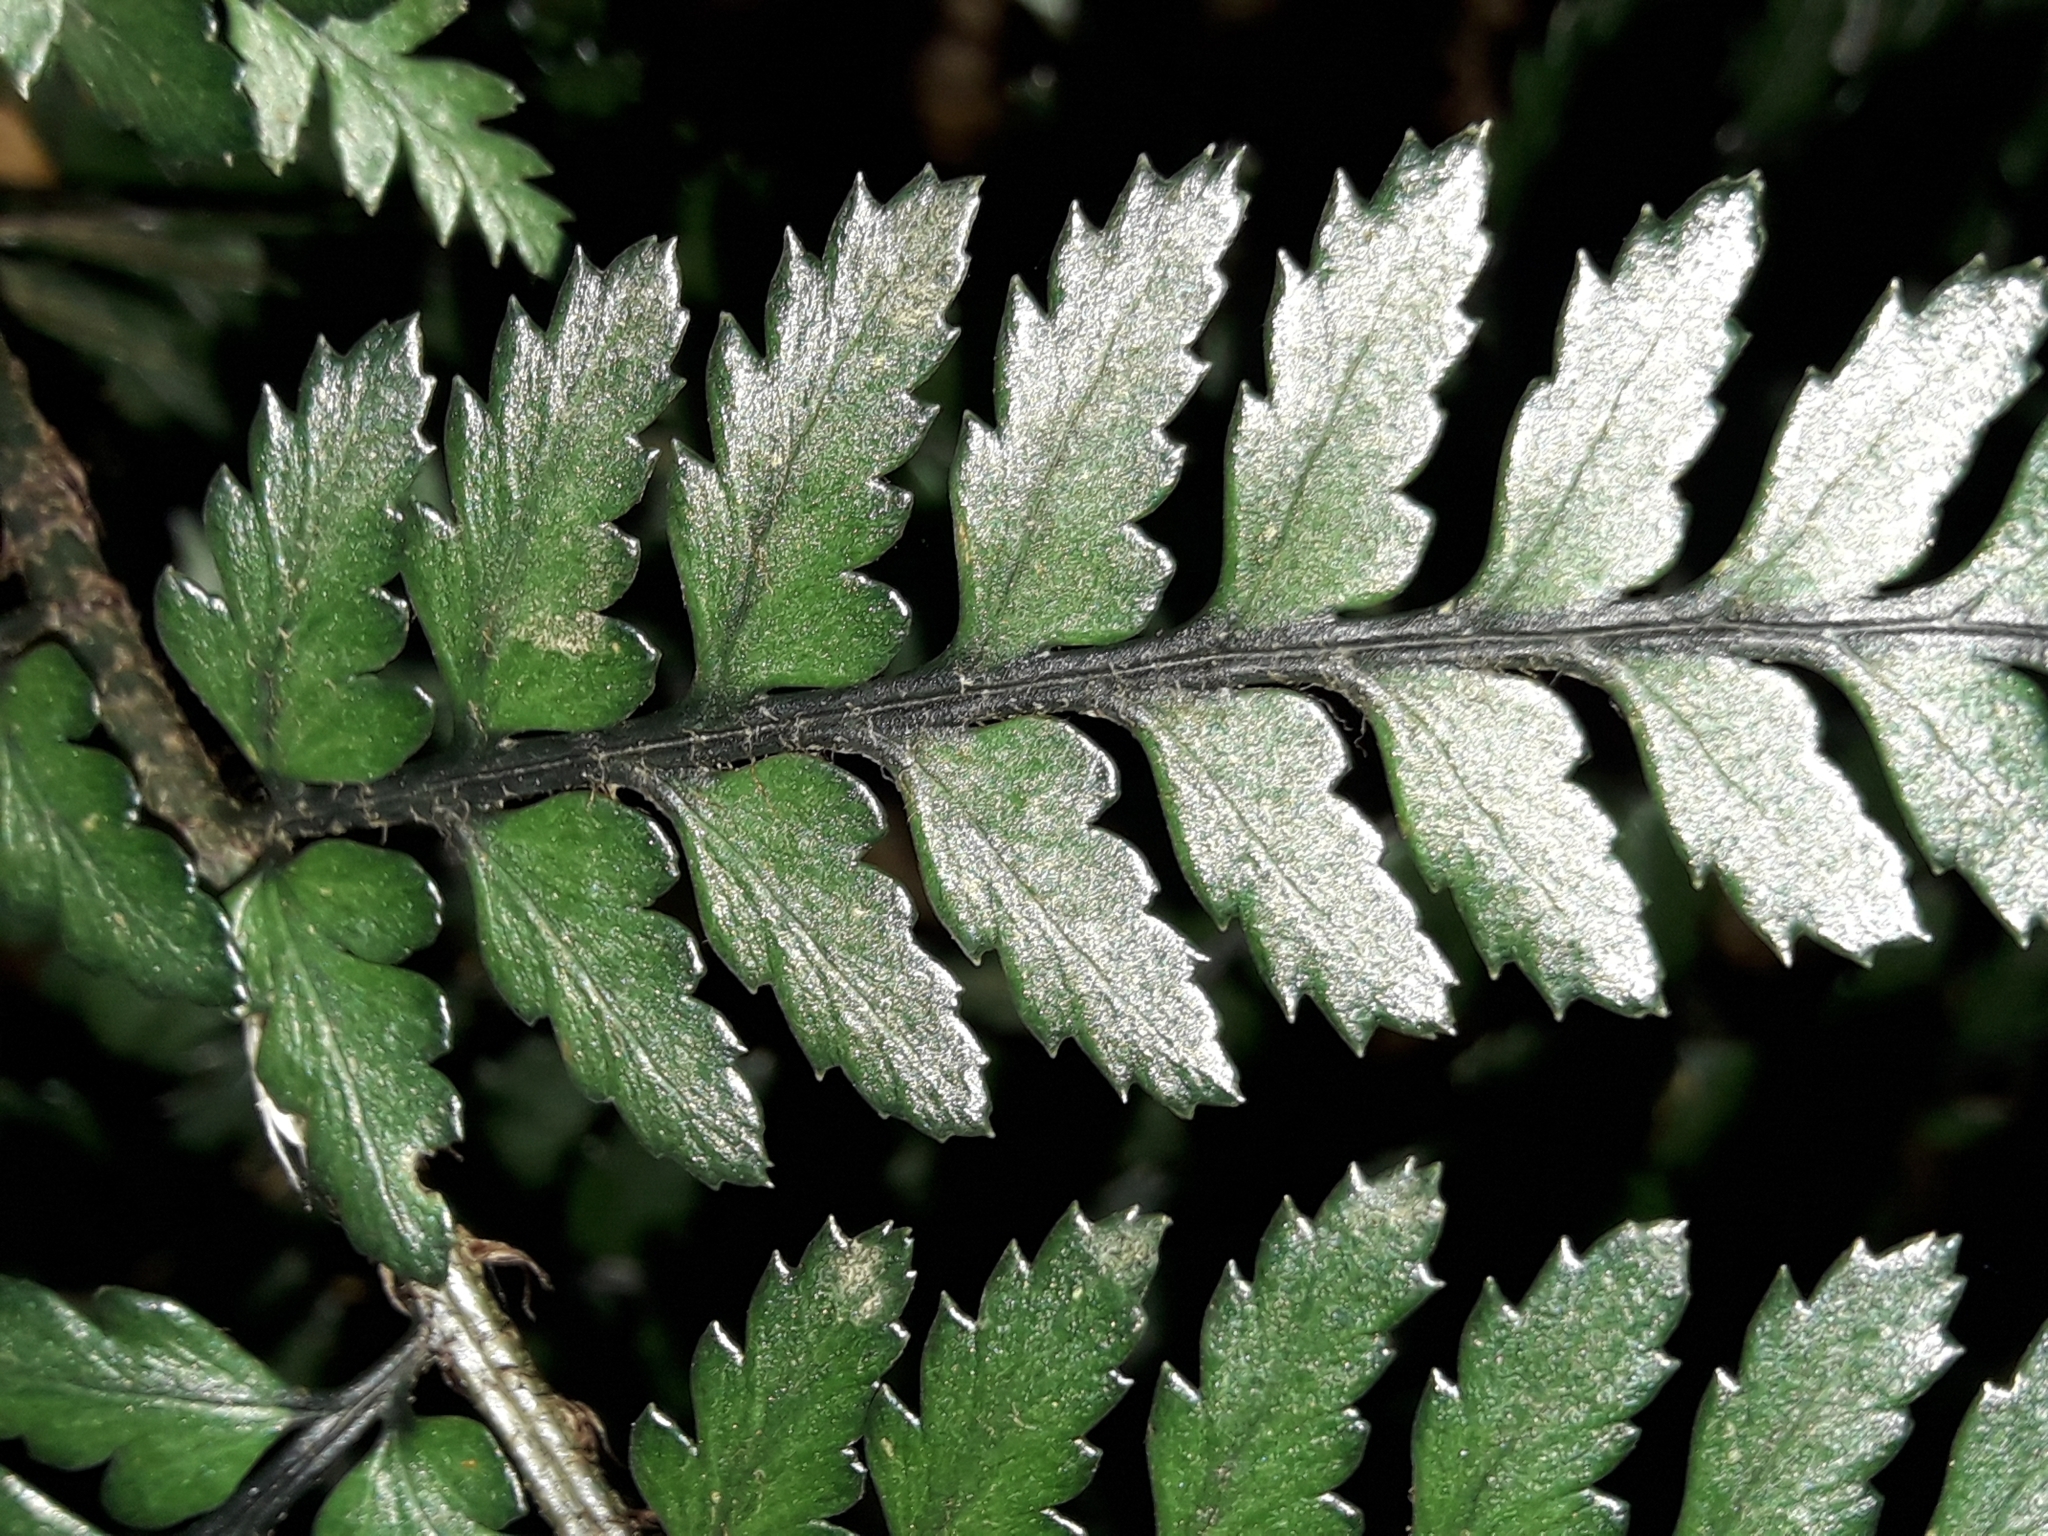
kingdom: Plantae
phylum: Tracheophyta
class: Polypodiopsida
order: Polypodiales
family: Dryopteridaceae
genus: Polystichum
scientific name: Polystichum neozelandicum
